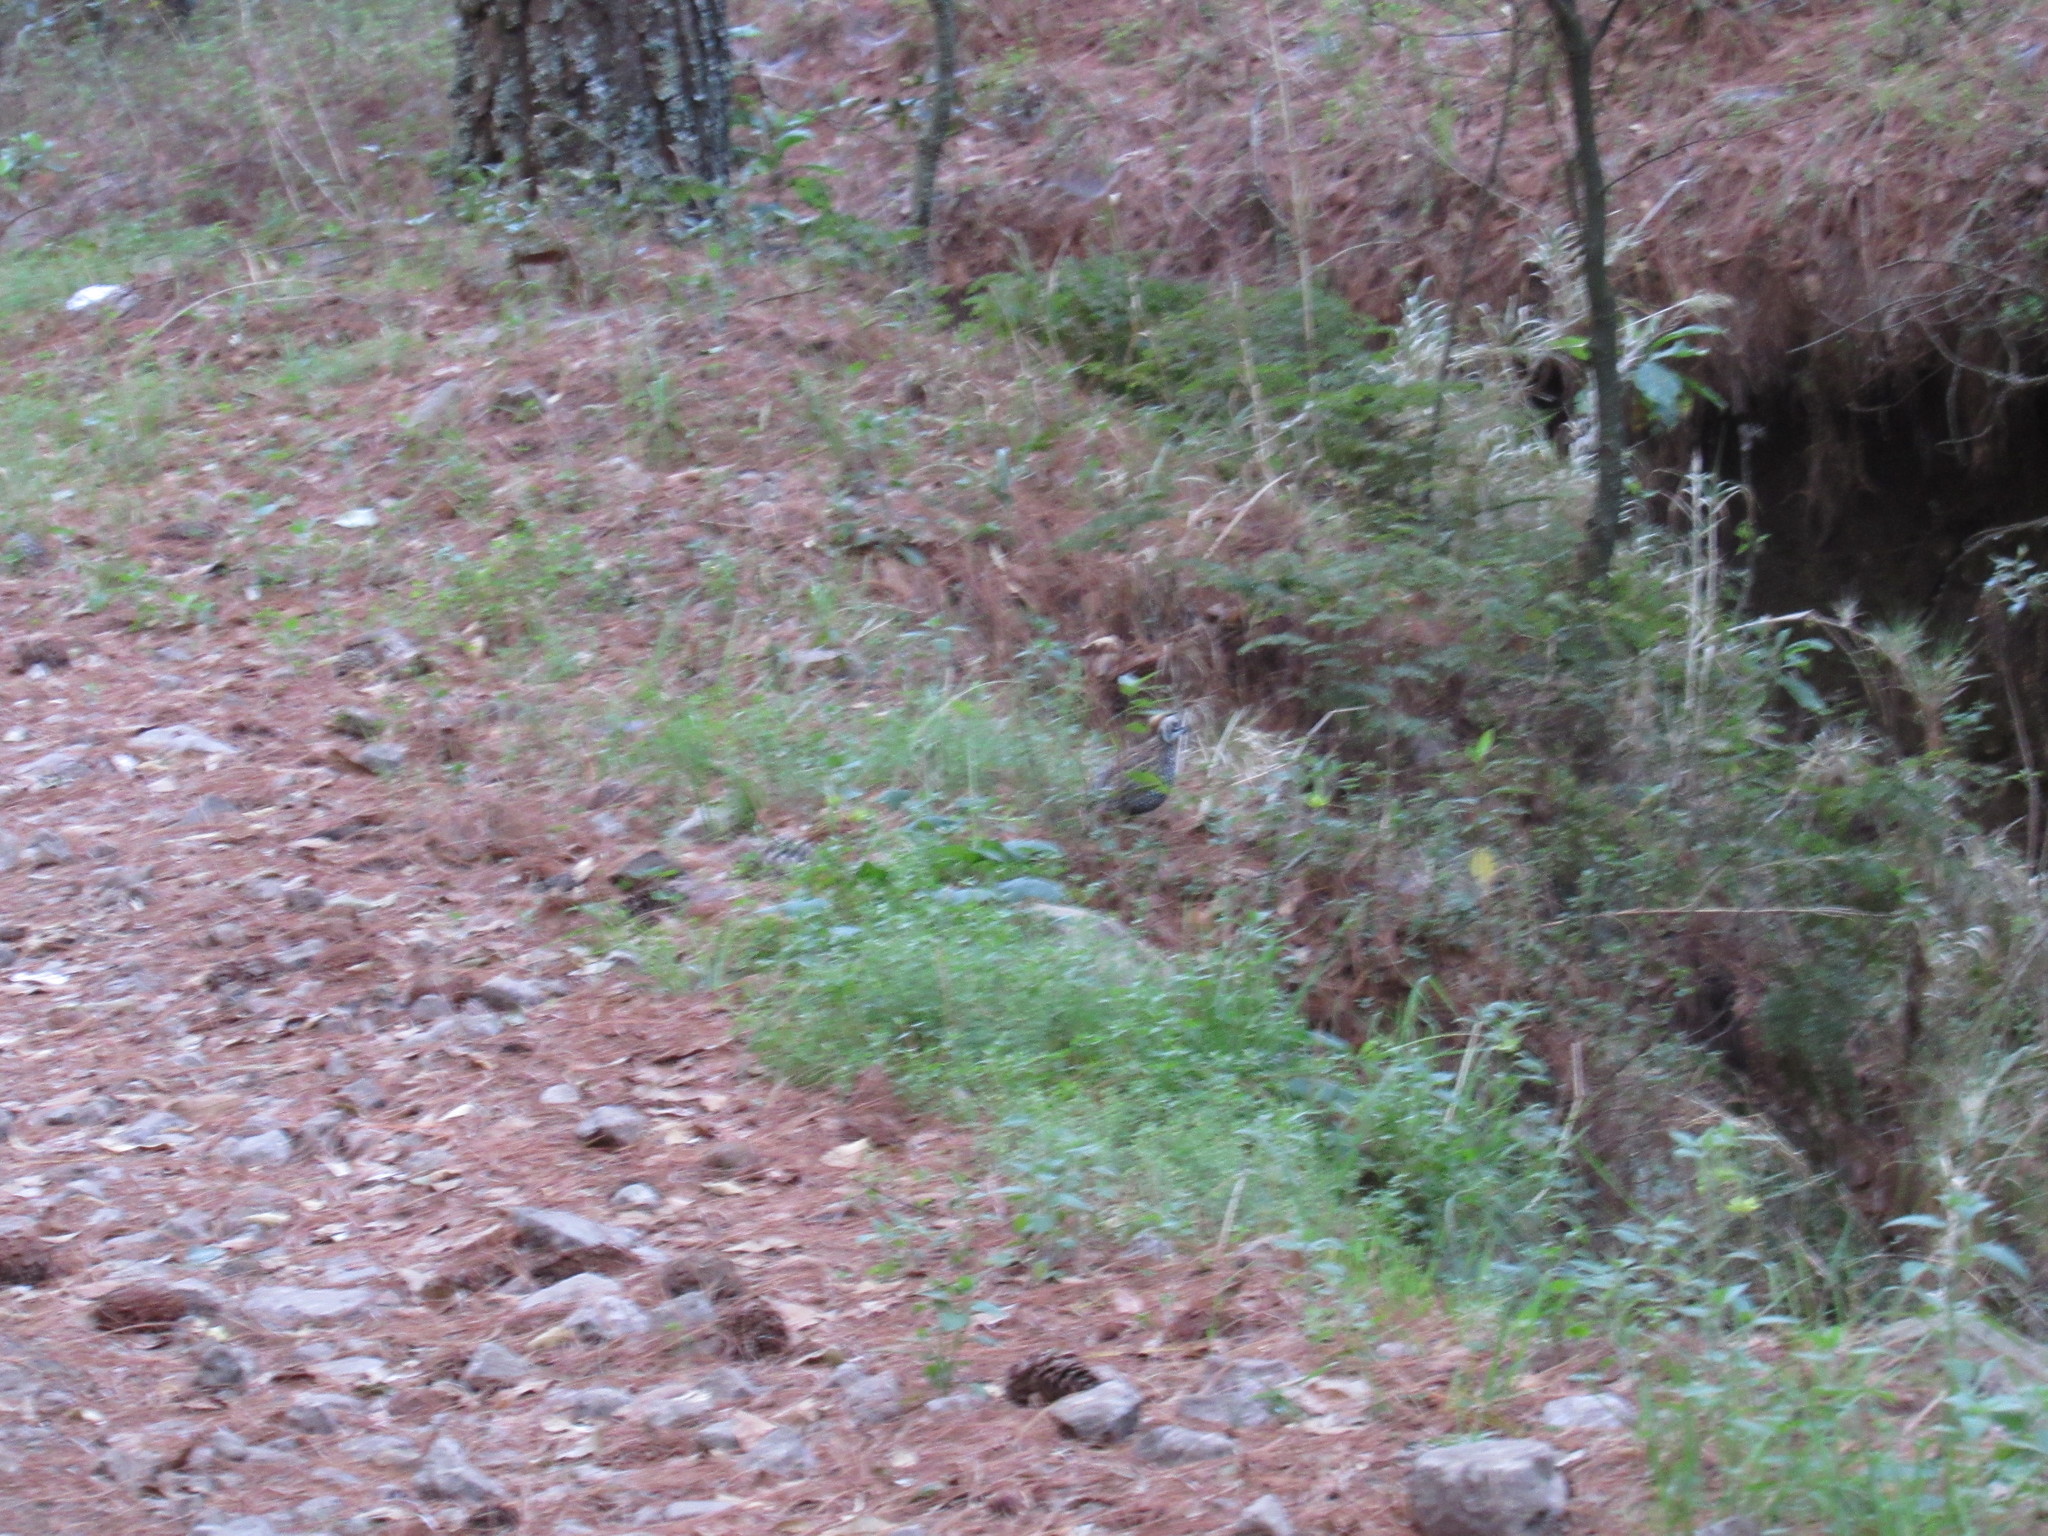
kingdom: Animalia
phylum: Chordata
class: Aves
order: Galliformes
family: Odontophoridae
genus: Cyrtonyx
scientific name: Cyrtonyx montezumae
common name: Montezuma quail
